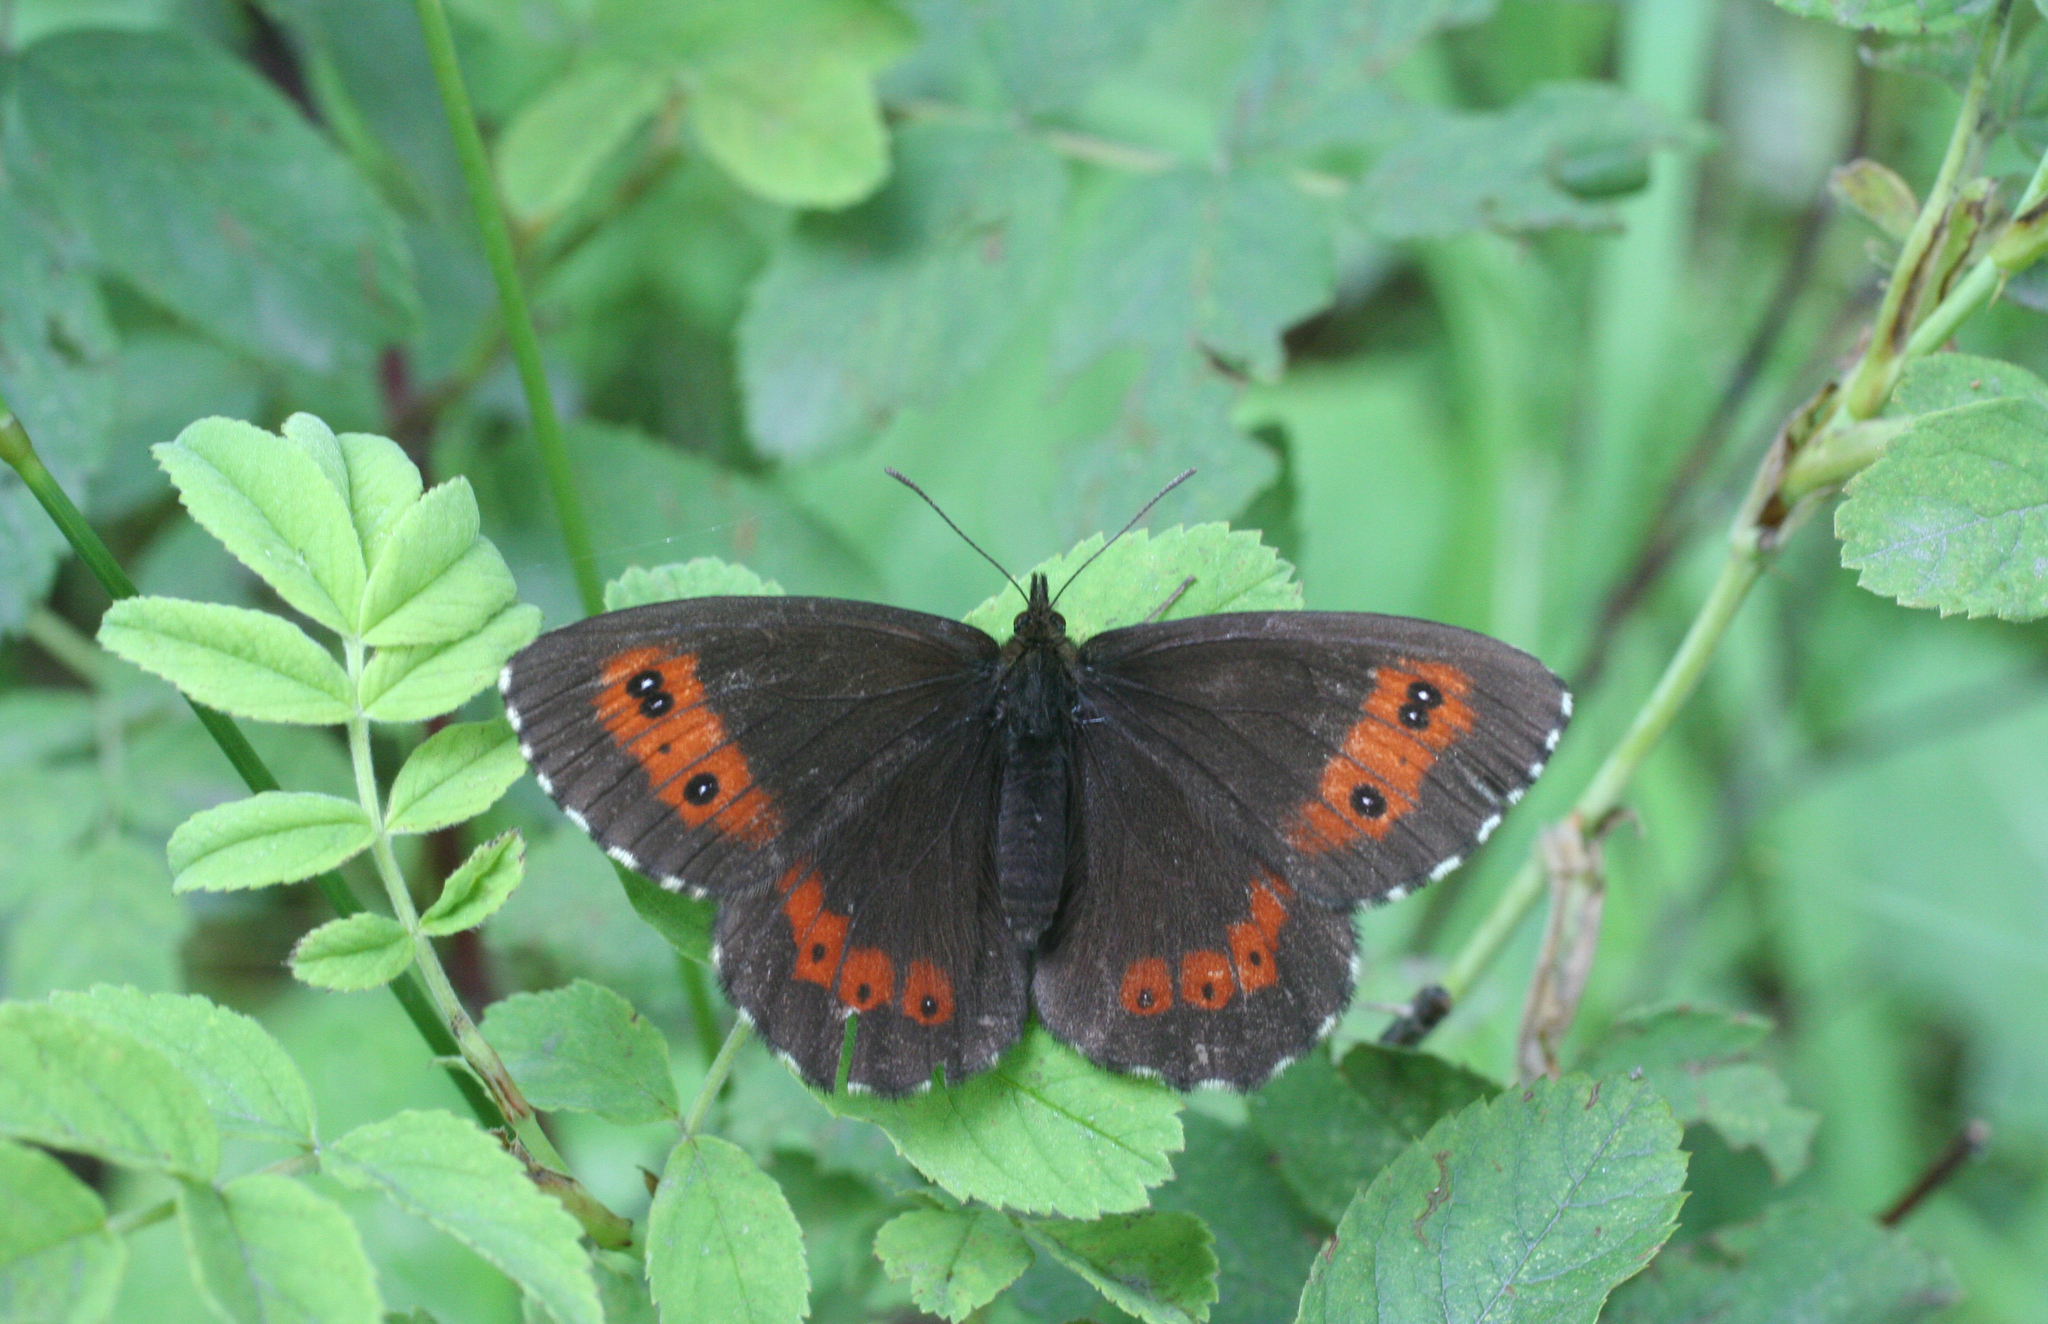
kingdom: Animalia
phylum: Arthropoda
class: Insecta
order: Lepidoptera
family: Nymphalidae
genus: Erebia
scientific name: Erebia ligea
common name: Arran brown
